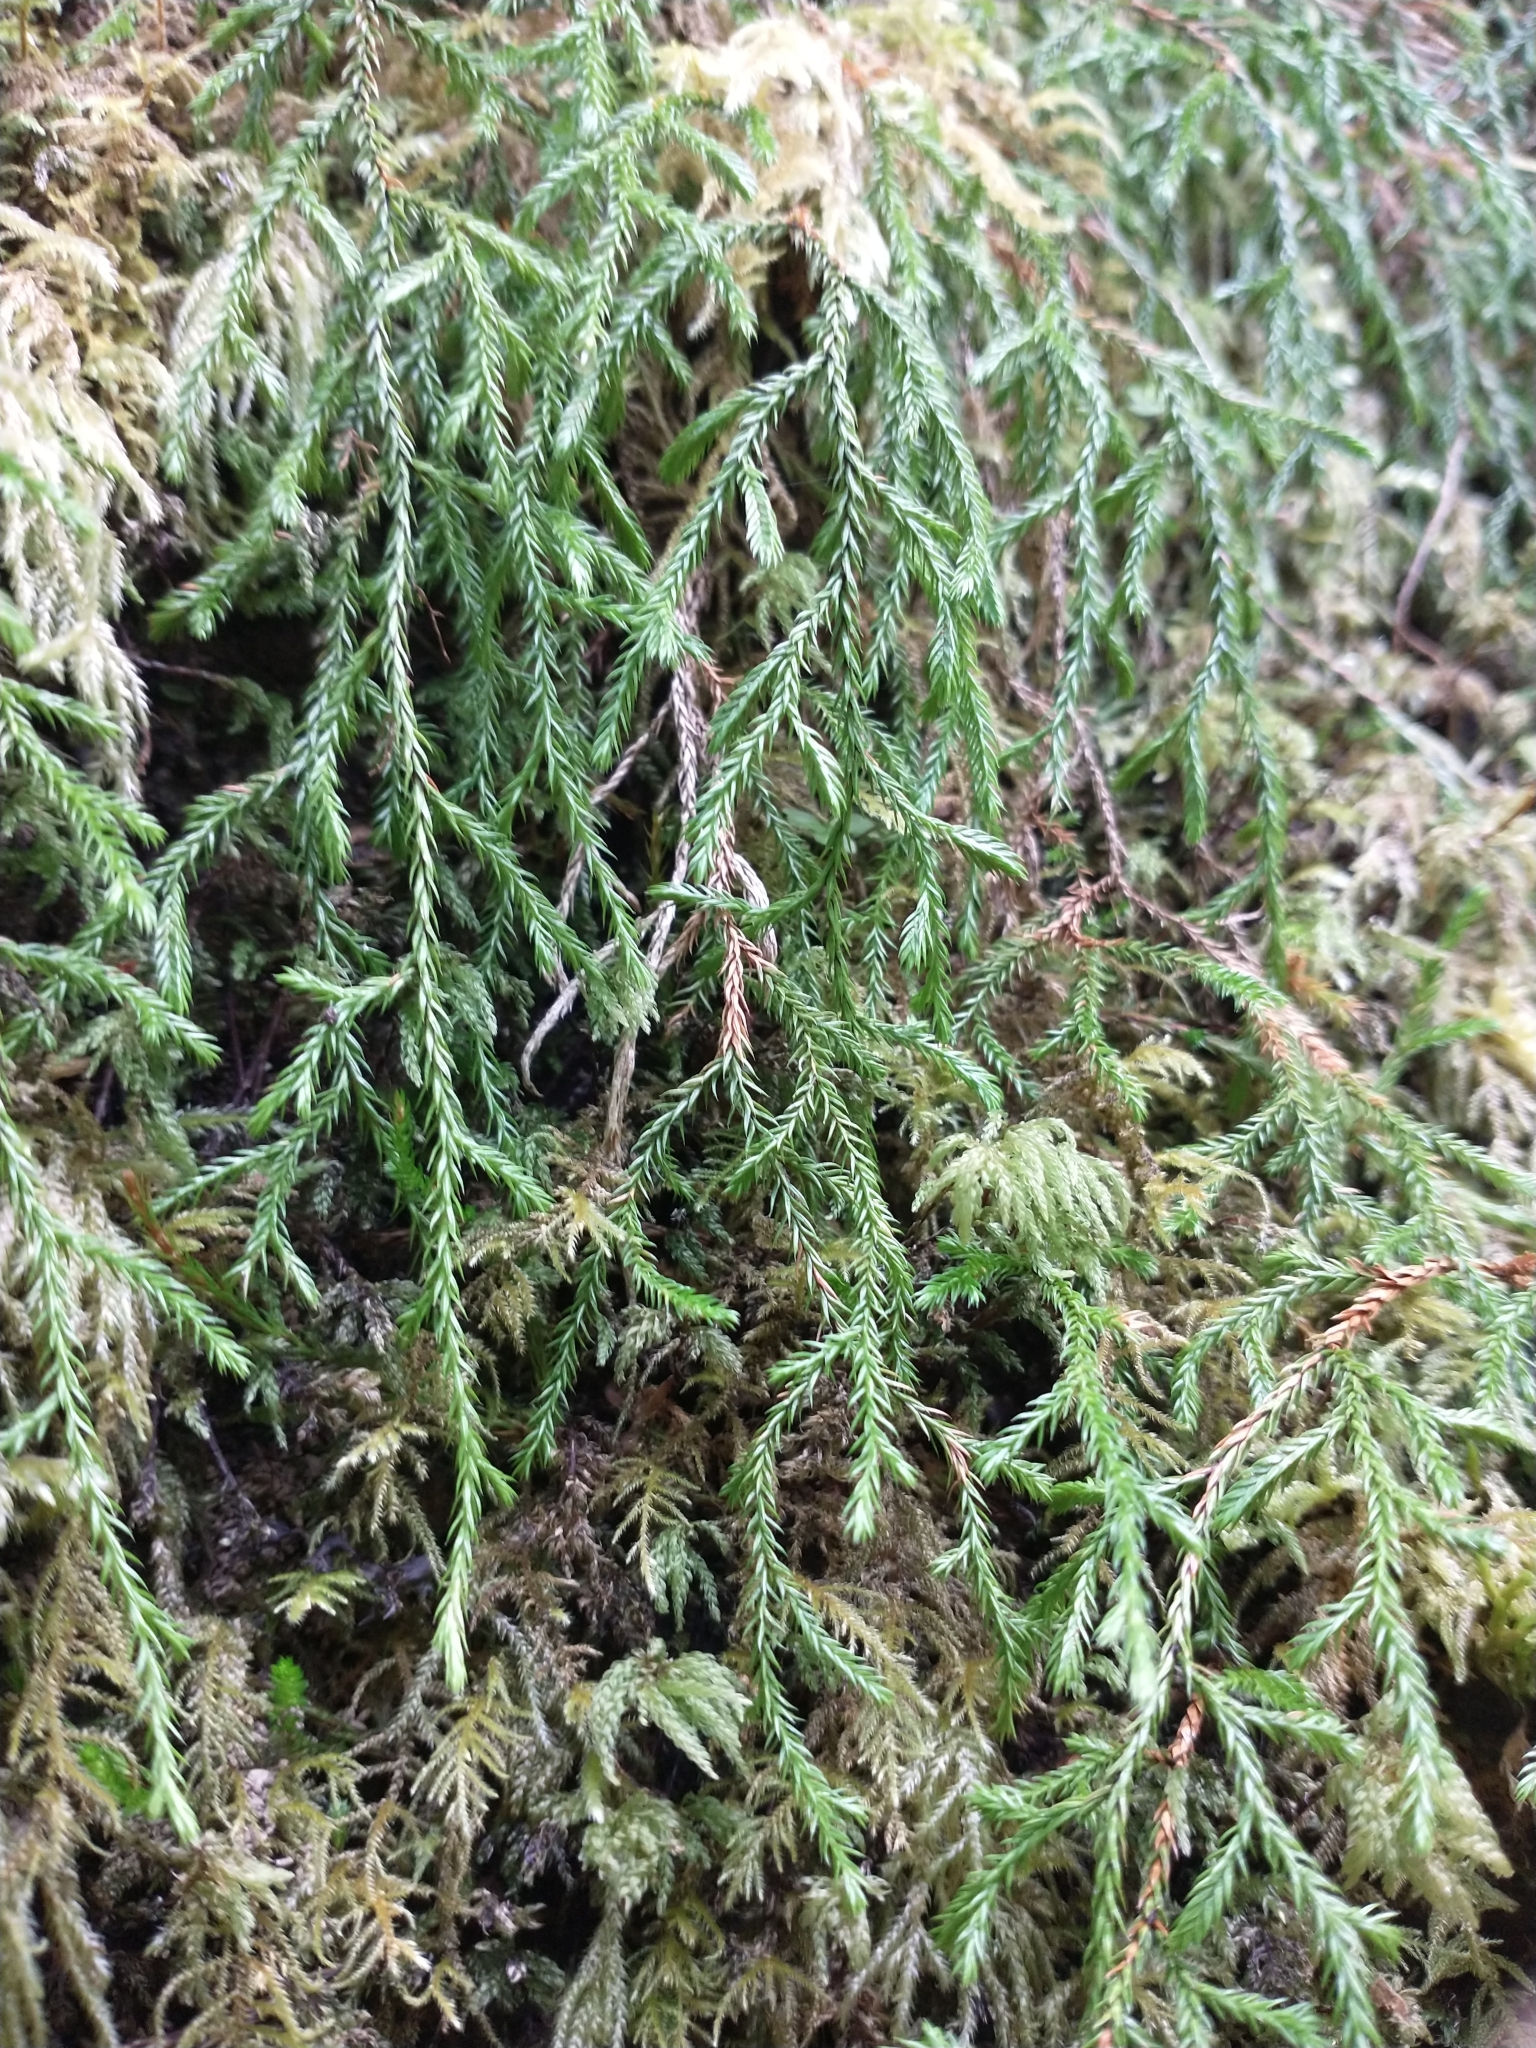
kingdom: Plantae
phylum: Tracheophyta
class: Lycopodiopsida
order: Selaginellales
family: Selaginellaceae
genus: Selaginella
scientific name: Selaginella oregana
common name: Oregon selaginella
